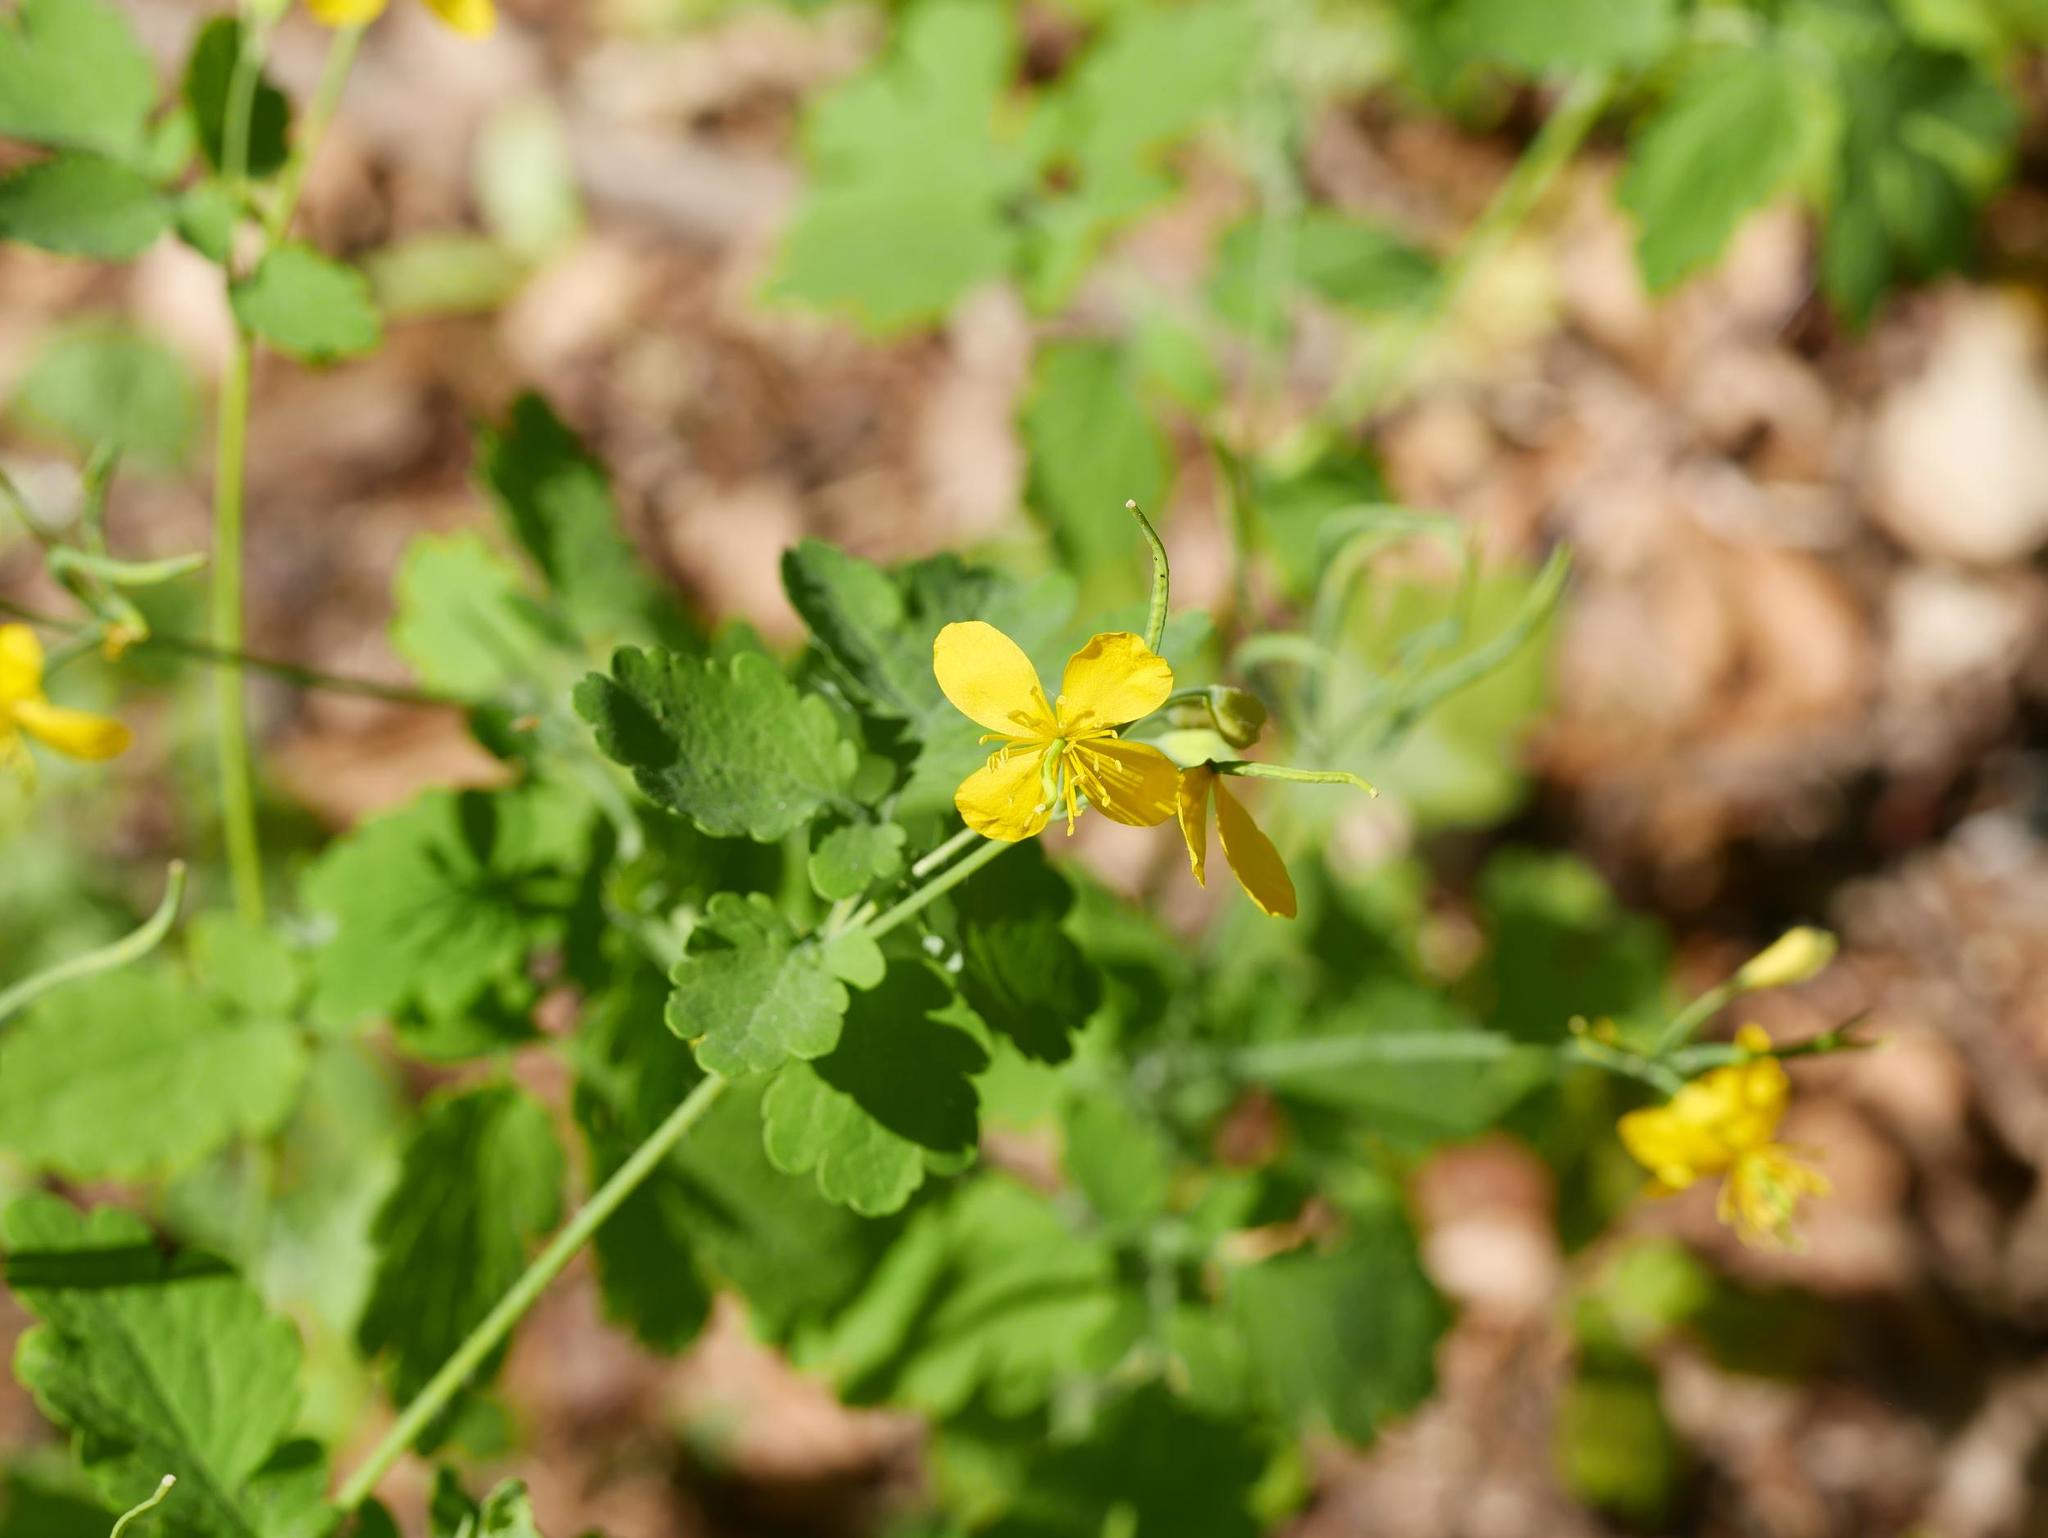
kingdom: Plantae
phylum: Tracheophyta
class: Magnoliopsida
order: Ranunculales
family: Papaveraceae
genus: Chelidonium
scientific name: Chelidonium majus
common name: Greater celandine
